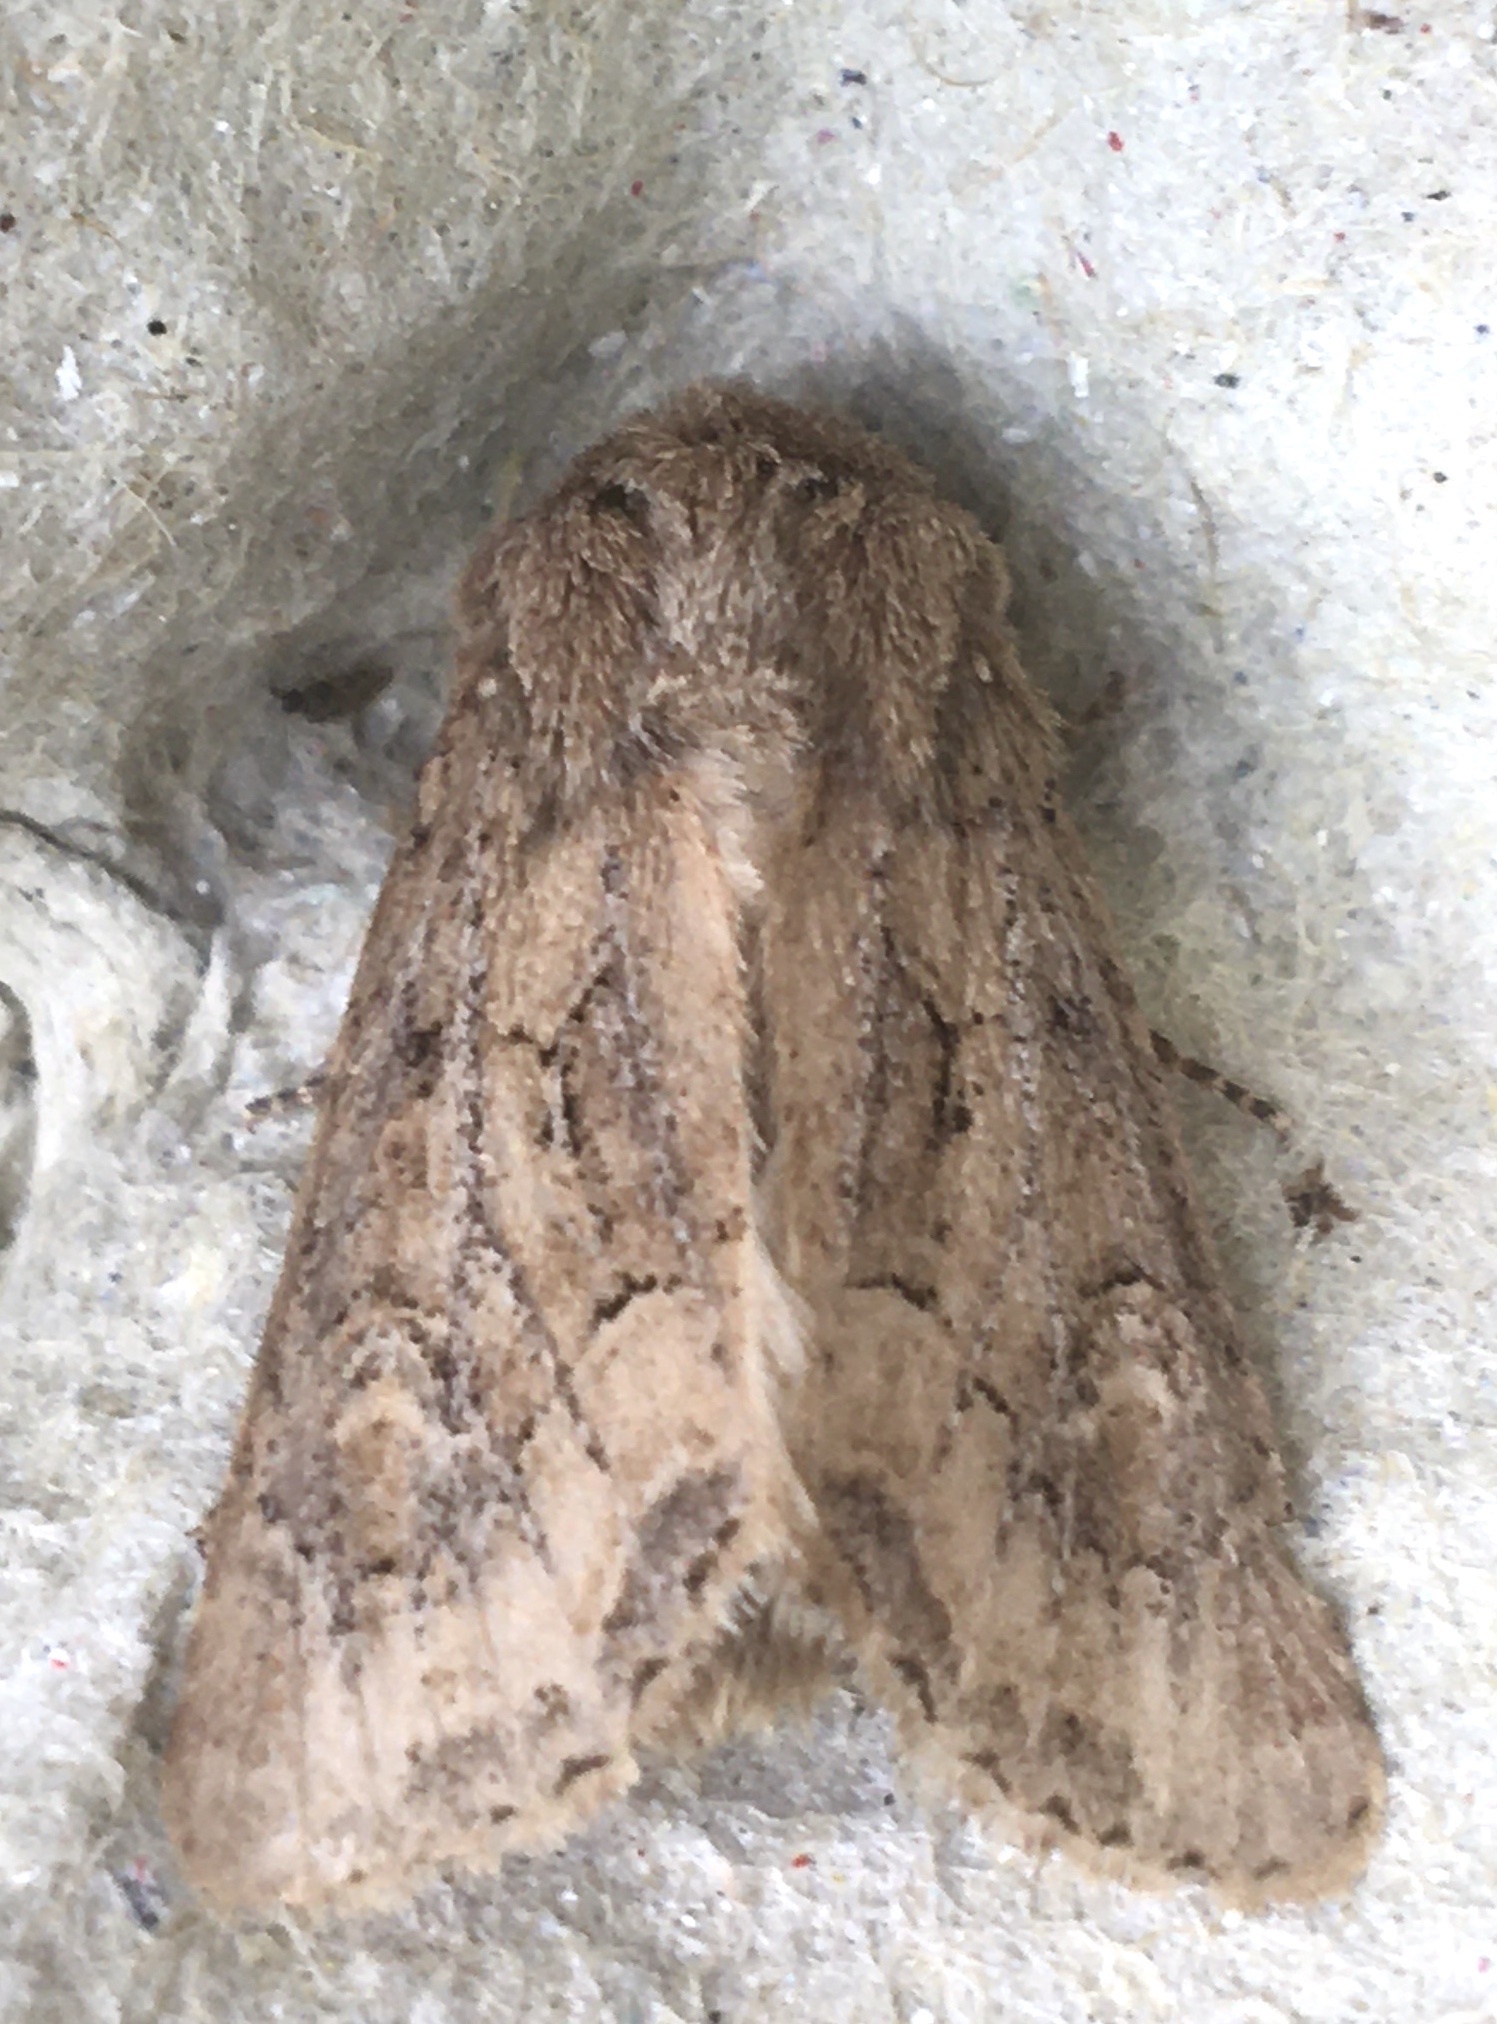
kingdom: Animalia
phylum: Arthropoda
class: Insecta
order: Lepidoptera
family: Noctuidae
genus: Luperina
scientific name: Luperina testacea
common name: Flounced rustic
